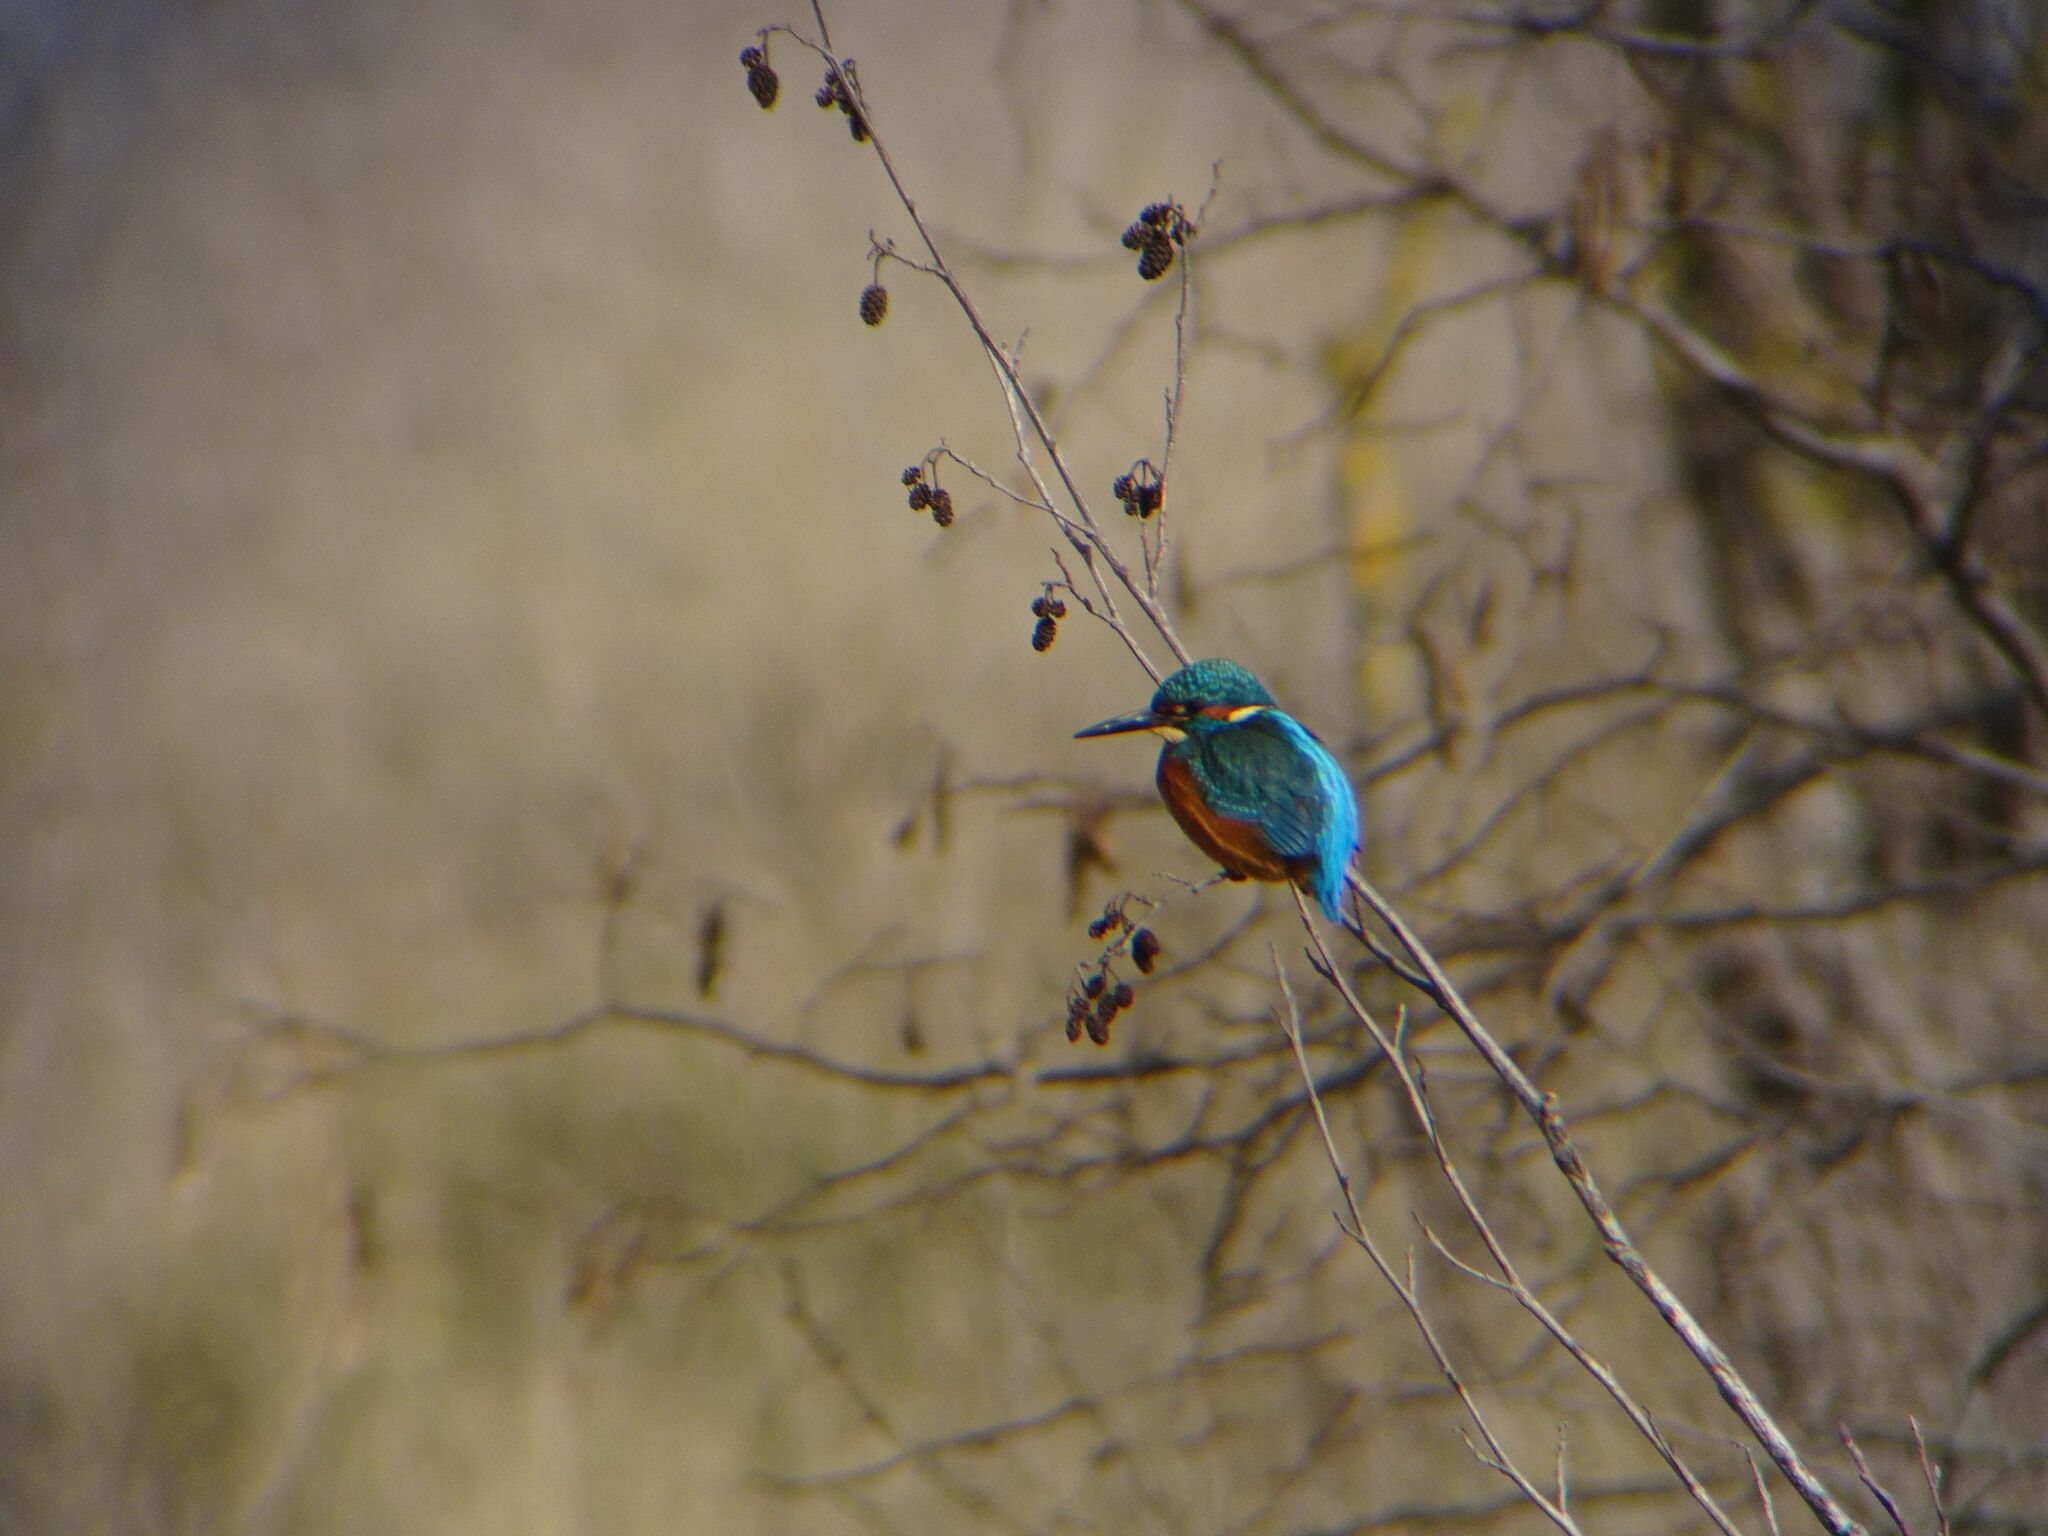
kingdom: Animalia
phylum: Chordata
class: Aves
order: Coraciiformes
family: Alcedinidae
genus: Alcedo
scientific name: Alcedo atthis
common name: Common kingfisher
